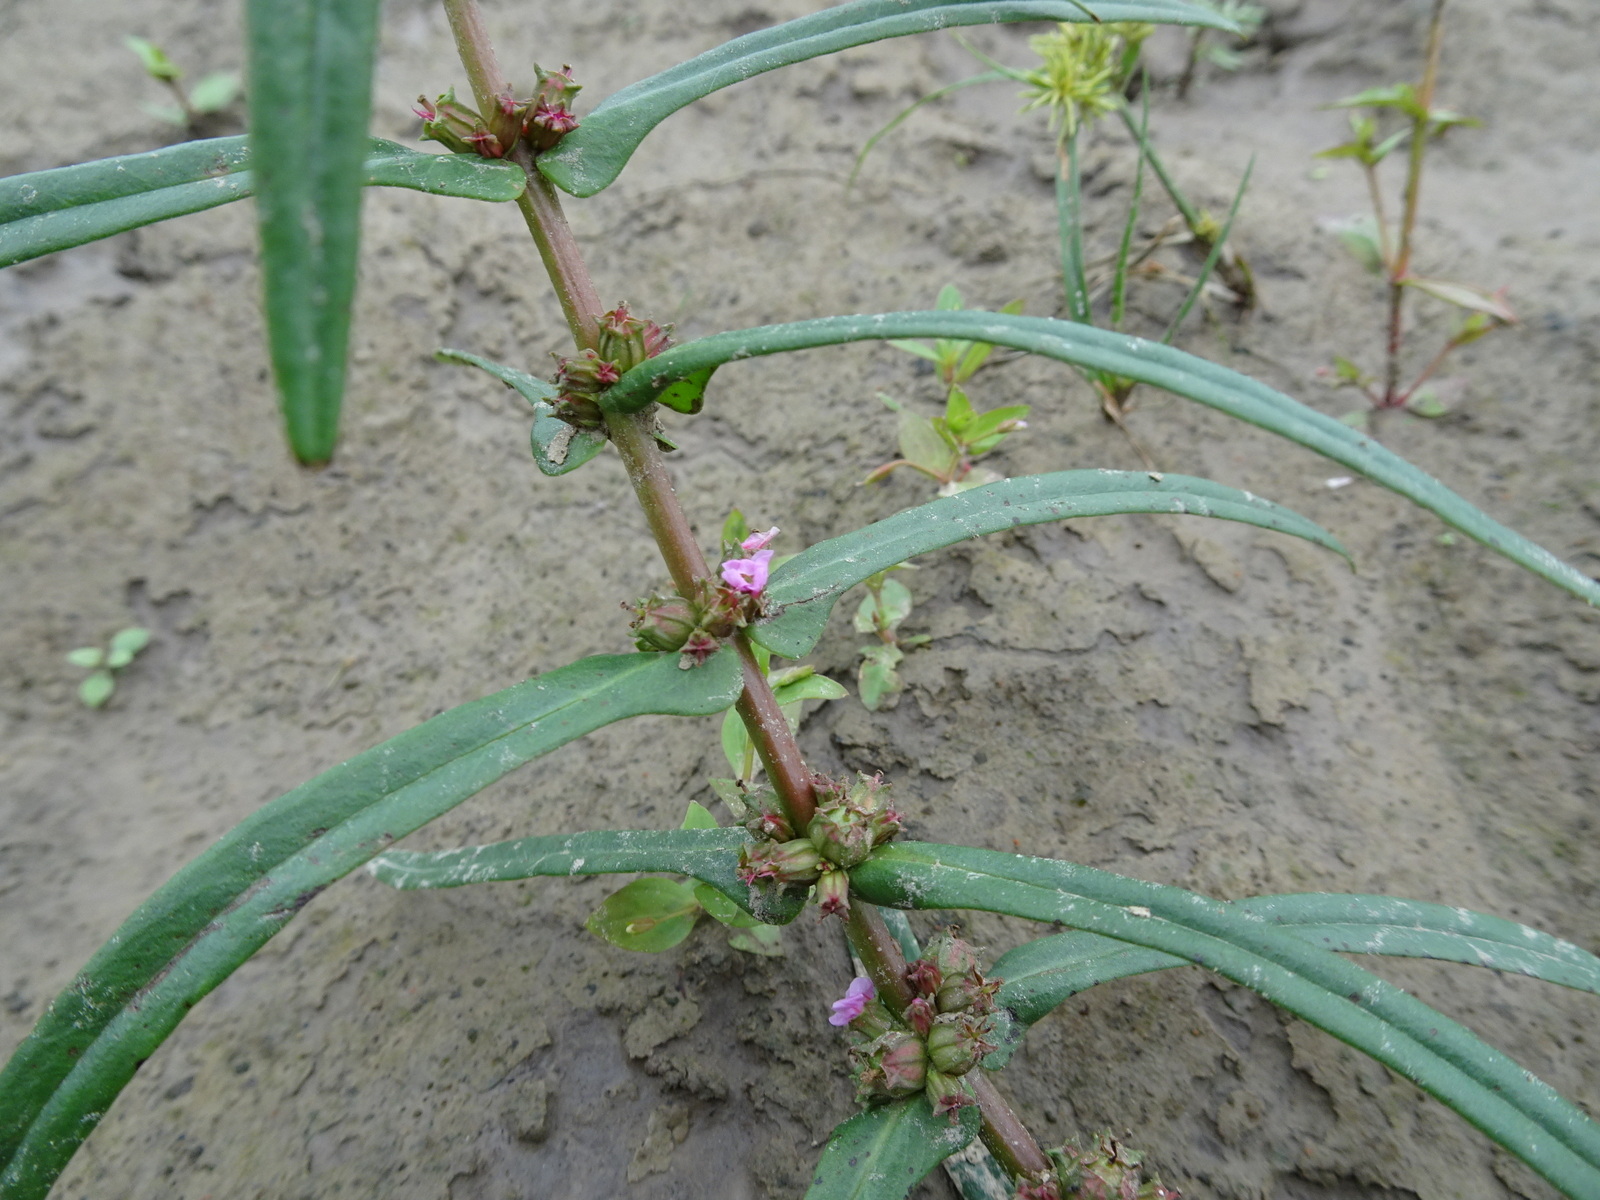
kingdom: Plantae
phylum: Tracheophyta
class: Magnoliopsida
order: Myrtales
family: Lythraceae
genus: Ammannia
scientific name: Ammannia coccinea
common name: Valley redstem
